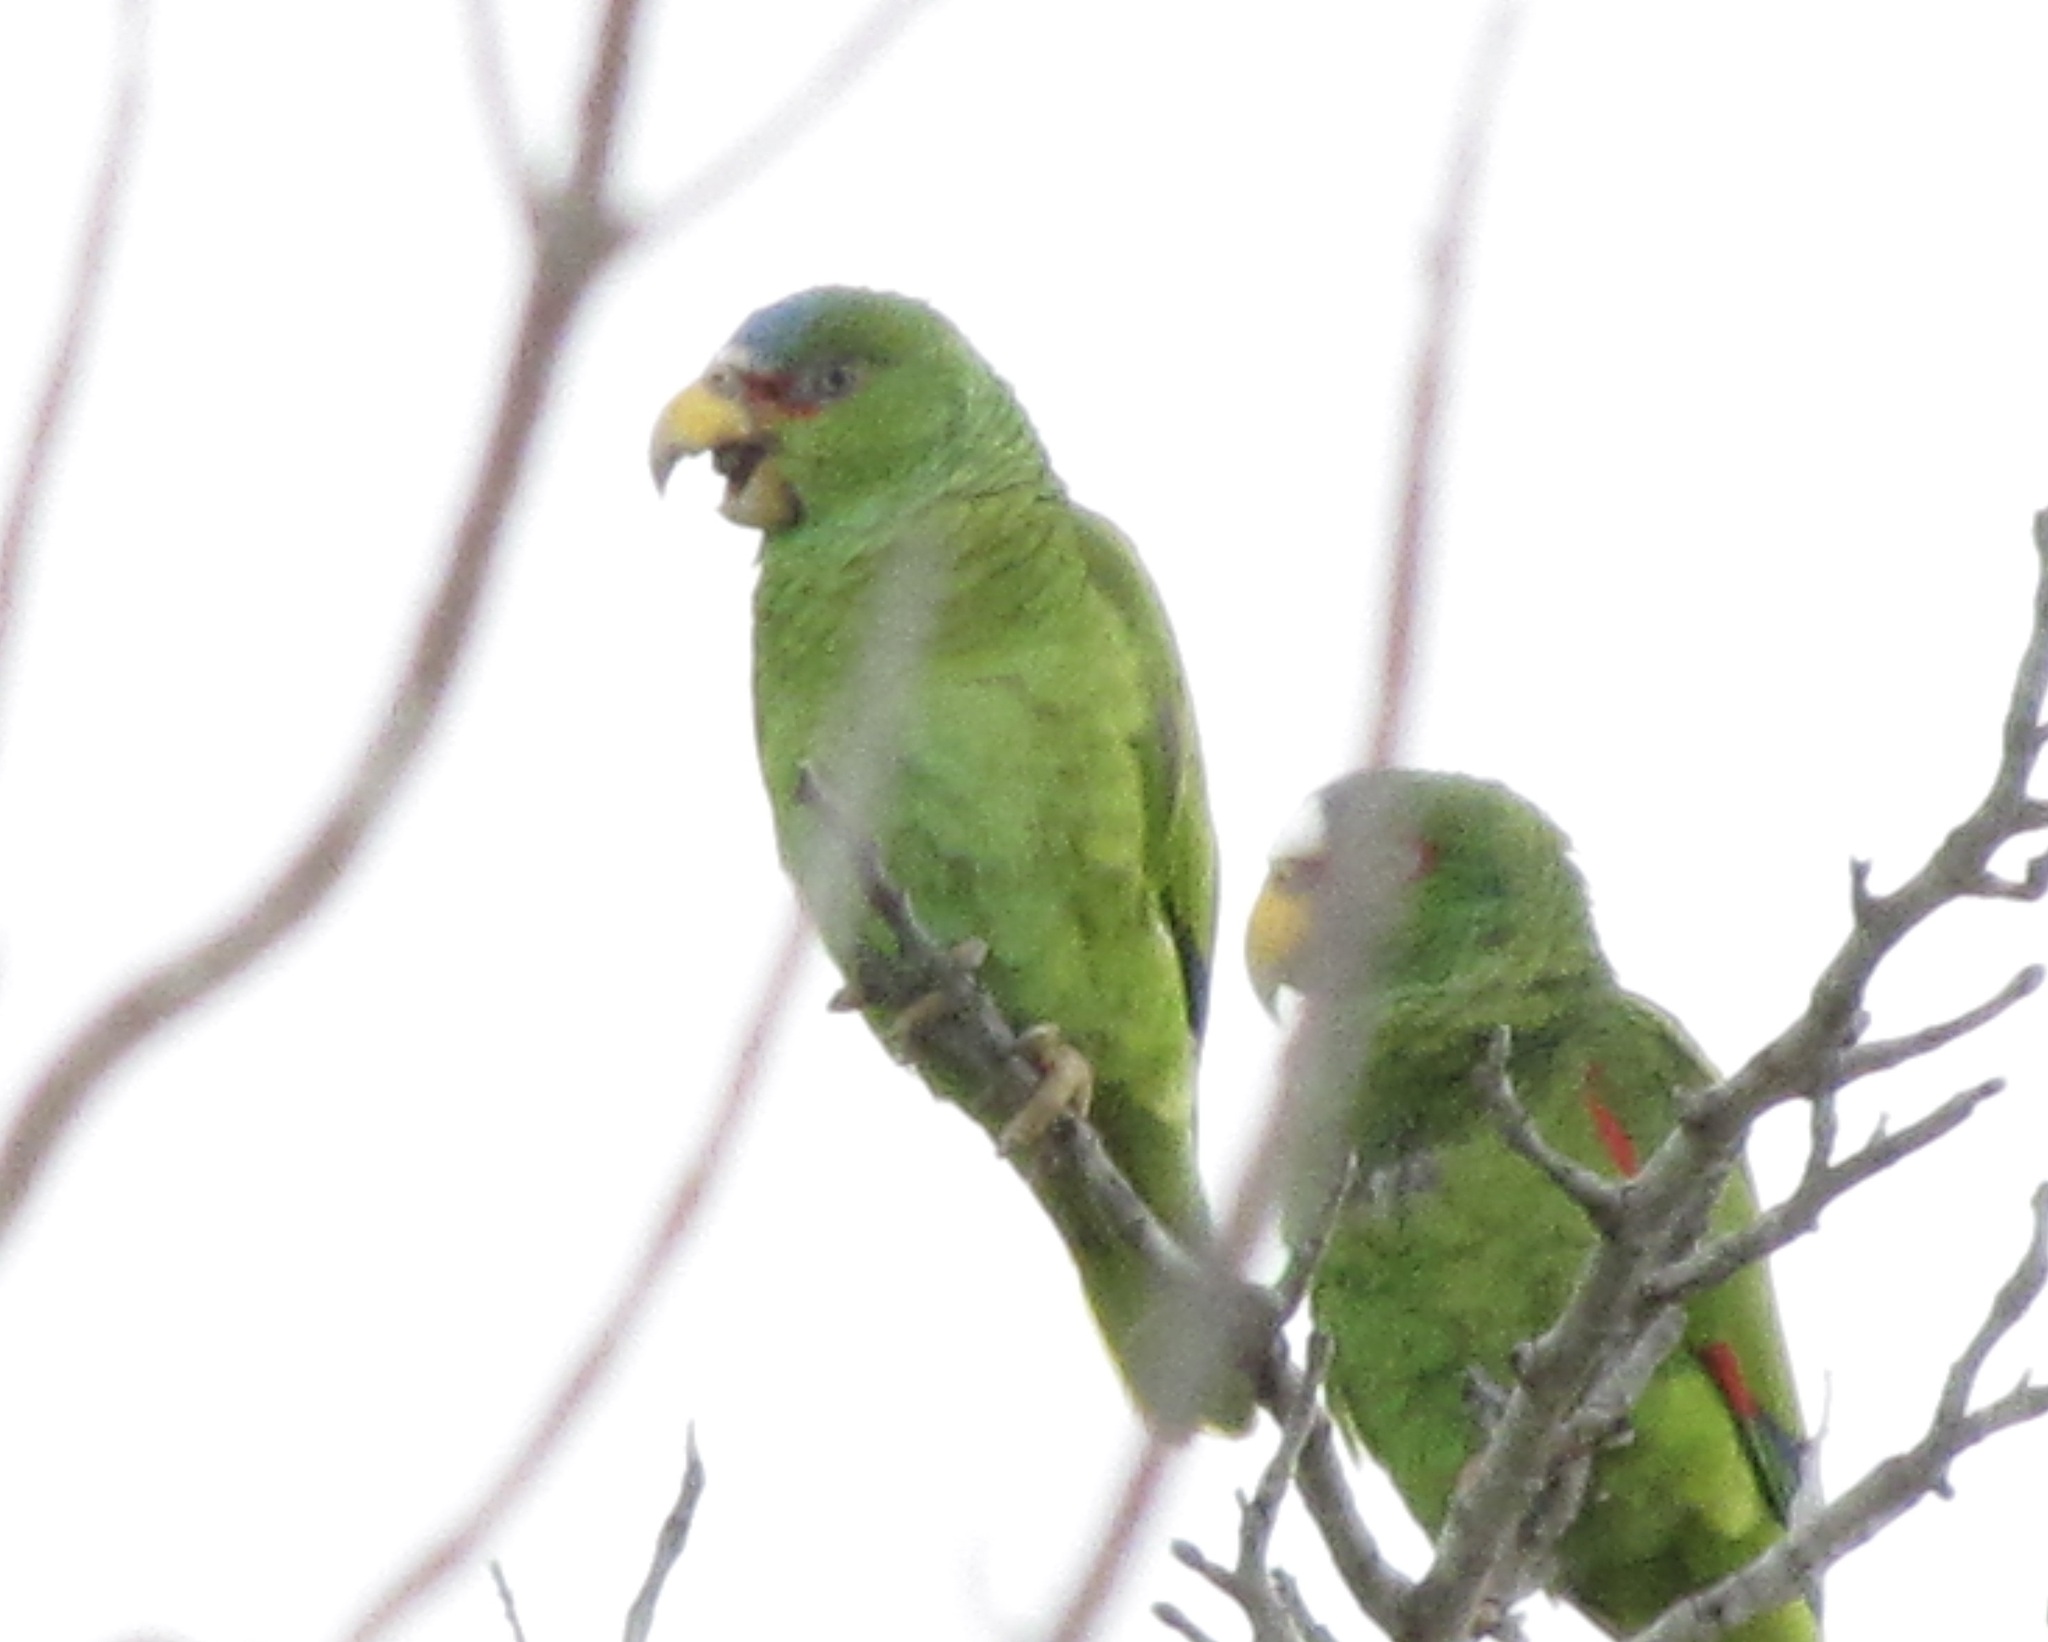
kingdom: Animalia
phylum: Chordata
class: Aves
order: Psittaciformes
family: Psittacidae
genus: Amazona
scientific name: Amazona albifrons
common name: White-fronted amazon
